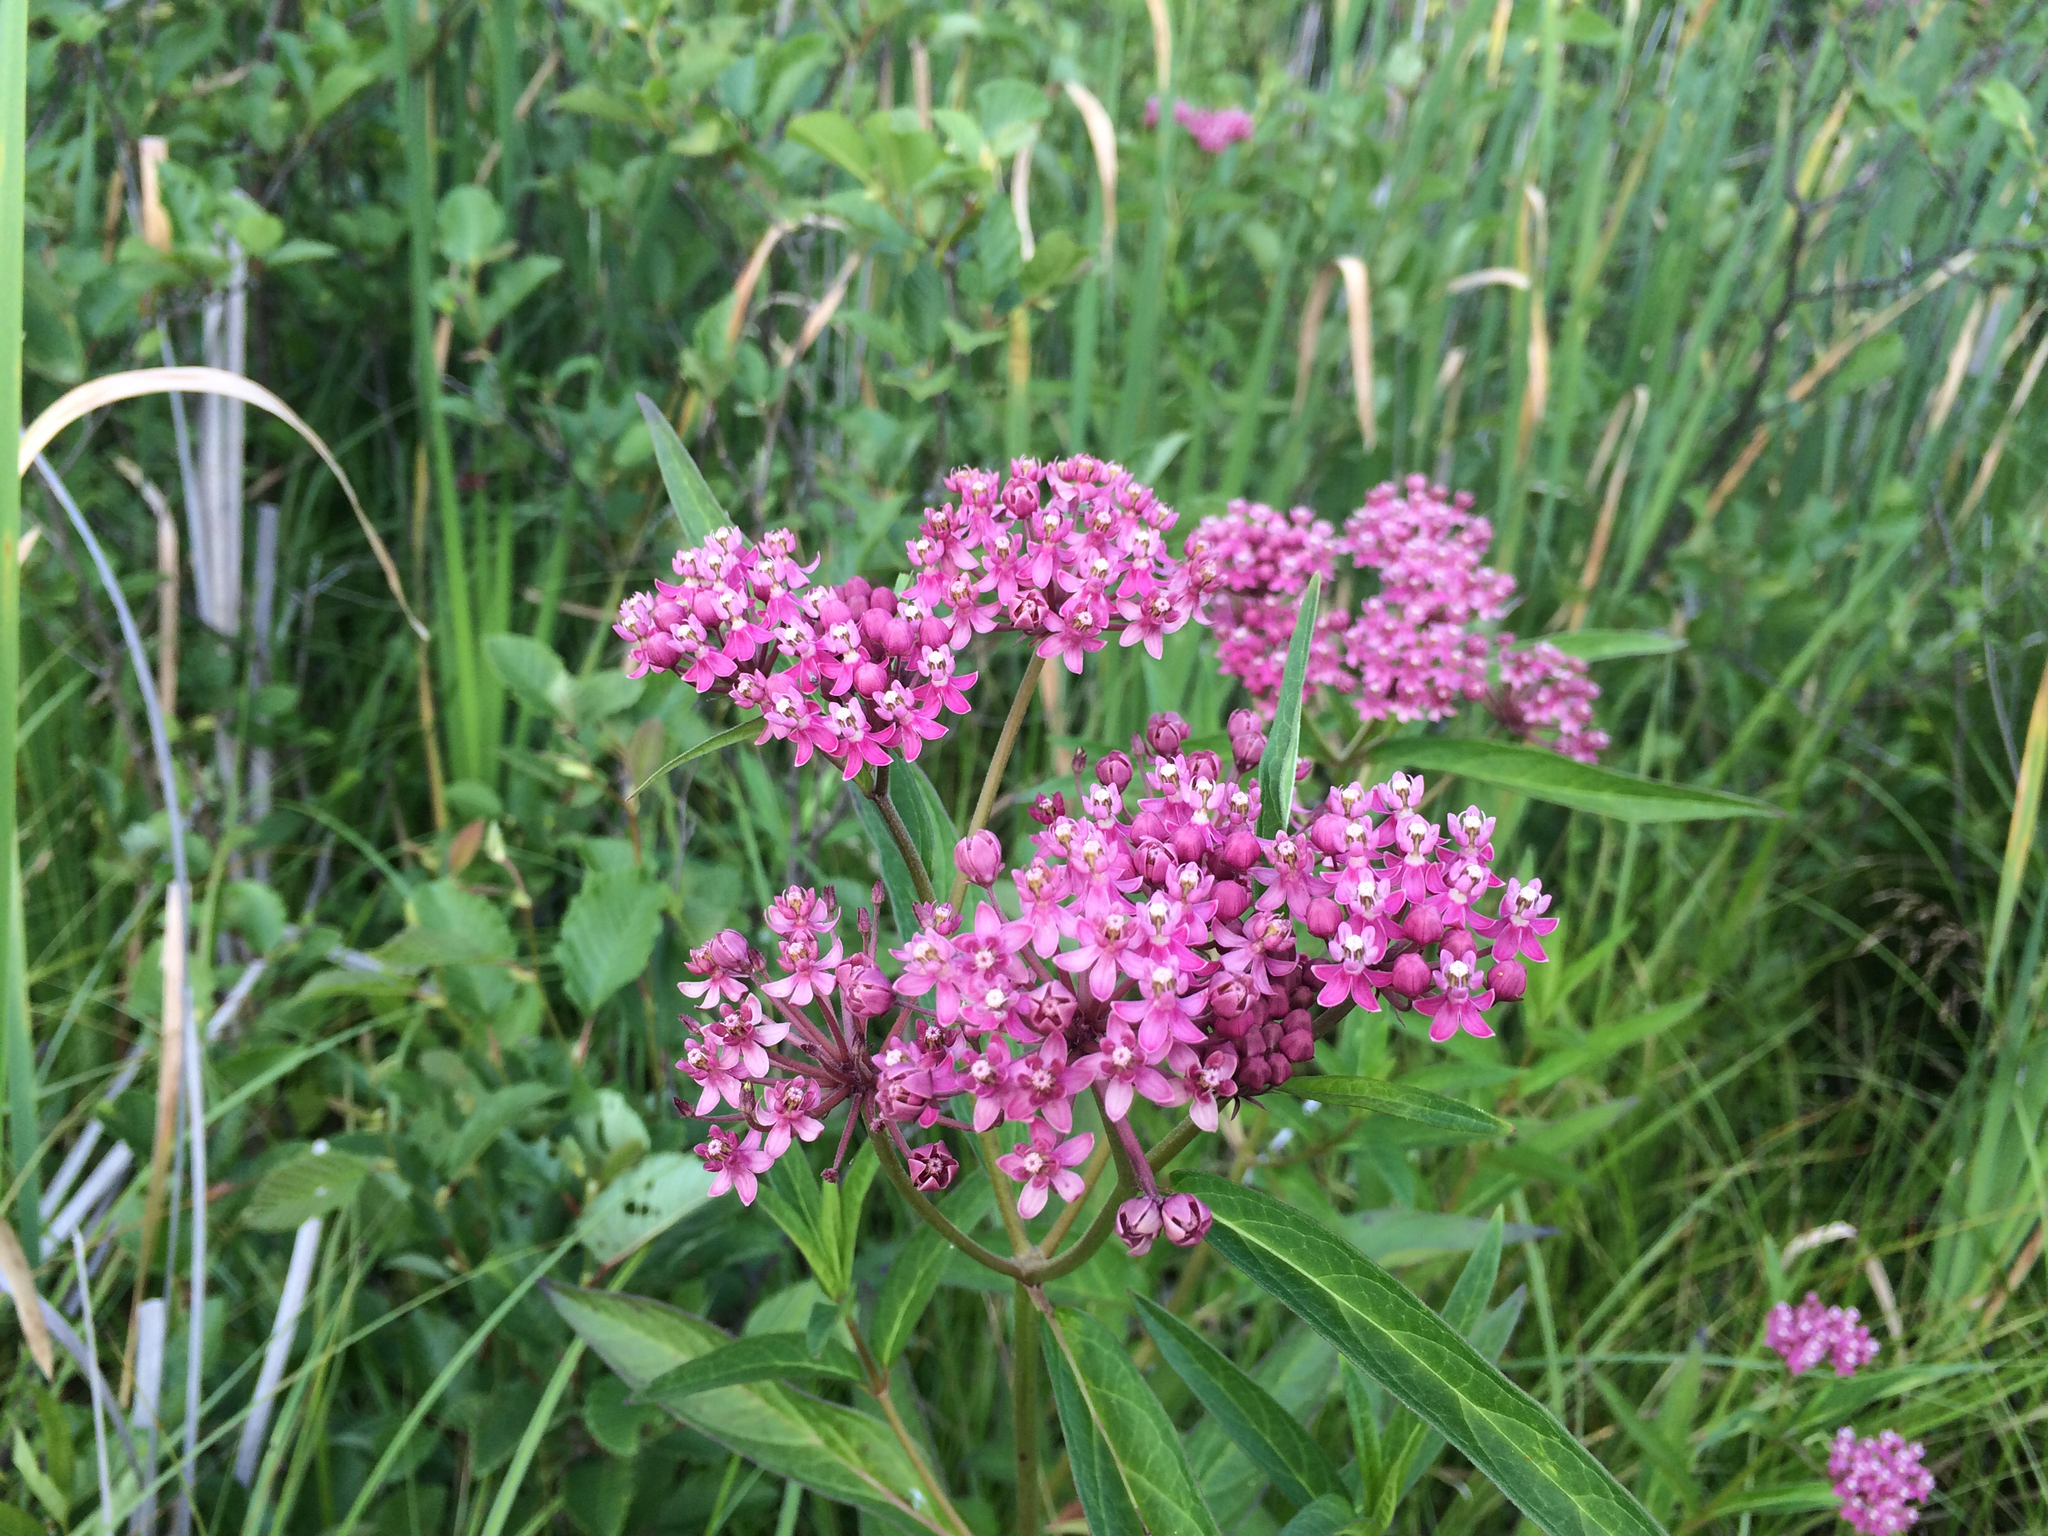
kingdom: Plantae
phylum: Tracheophyta
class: Magnoliopsida
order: Gentianales
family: Apocynaceae
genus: Asclepias
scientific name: Asclepias incarnata
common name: Swamp milkweed
